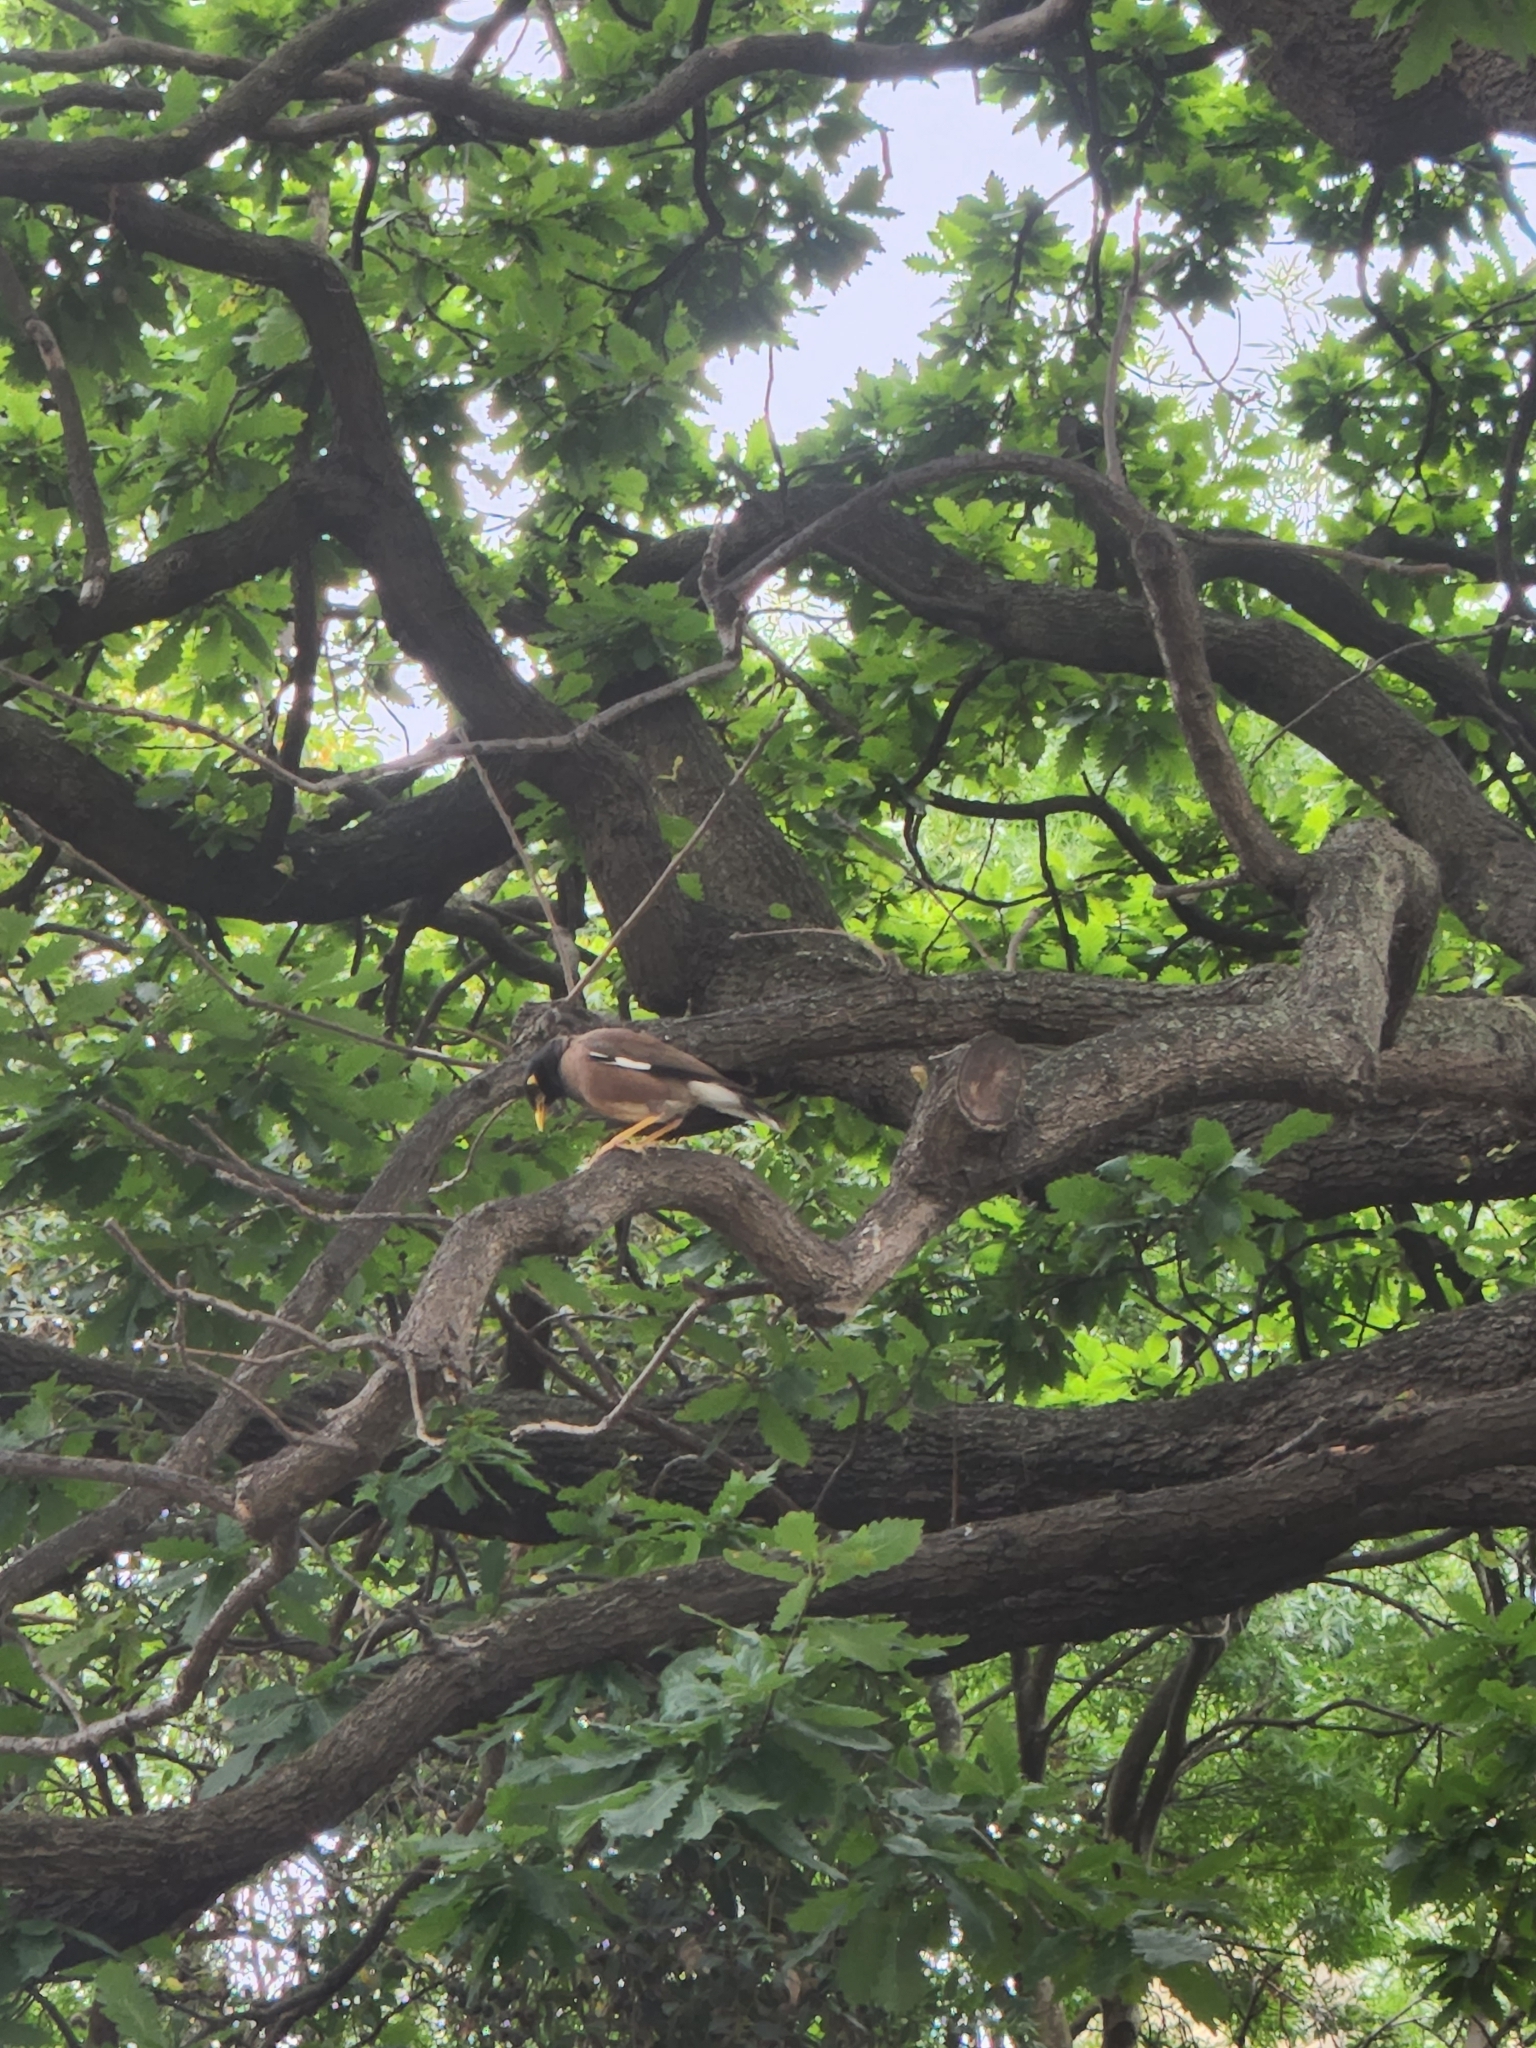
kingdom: Animalia
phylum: Chordata
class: Aves
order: Passeriformes
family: Sturnidae
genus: Acridotheres
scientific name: Acridotheres tristis
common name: Common myna
